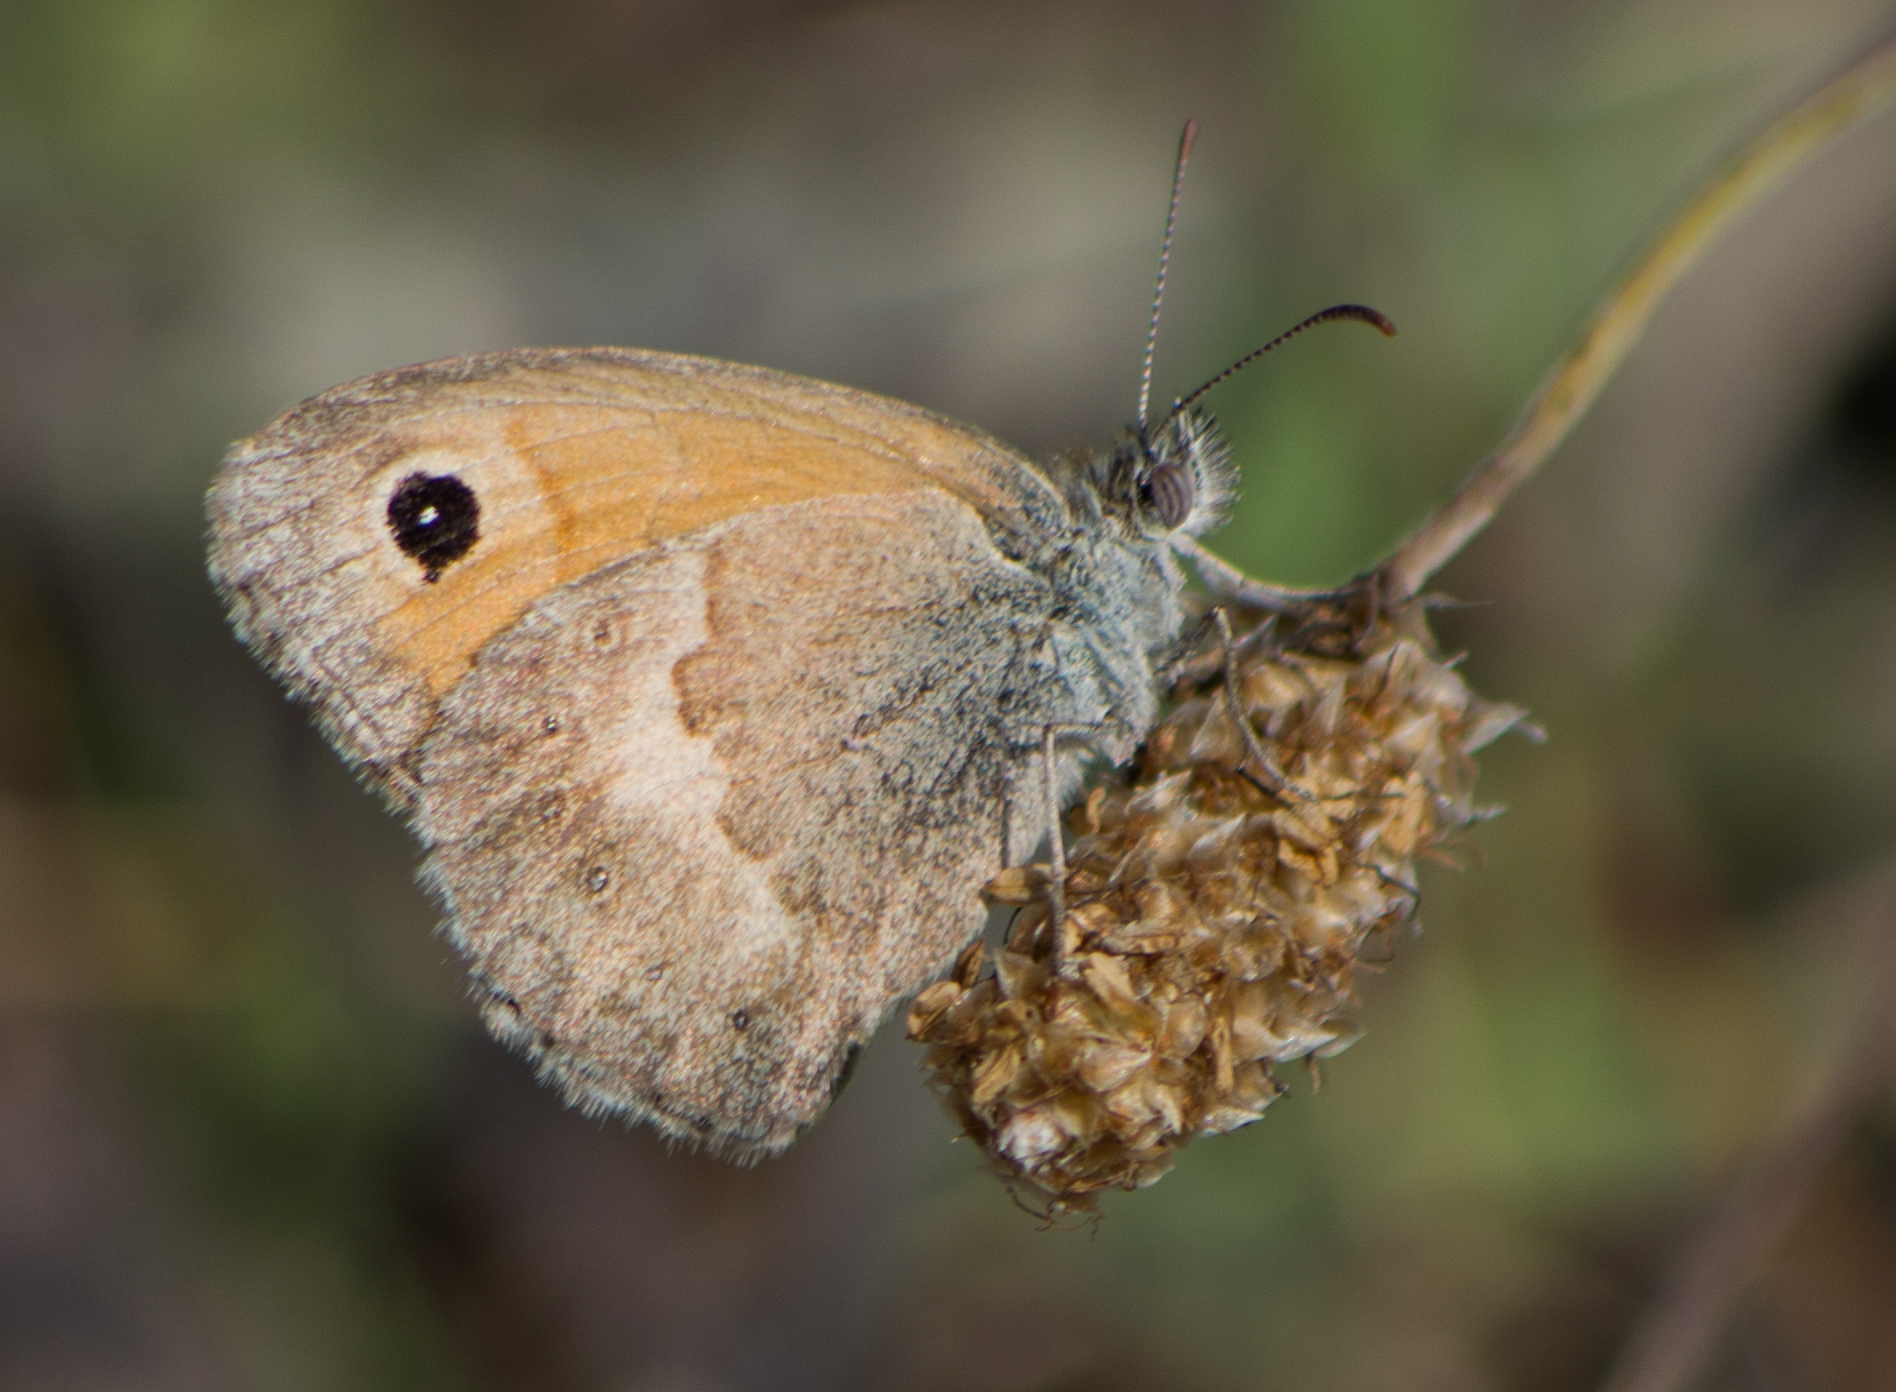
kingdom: Animalia
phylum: Arthropoda
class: Insecta
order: Lepidoptera
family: Nymphalidae
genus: Coenonympha
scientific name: Coenonympha pamphilus
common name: Small heath
